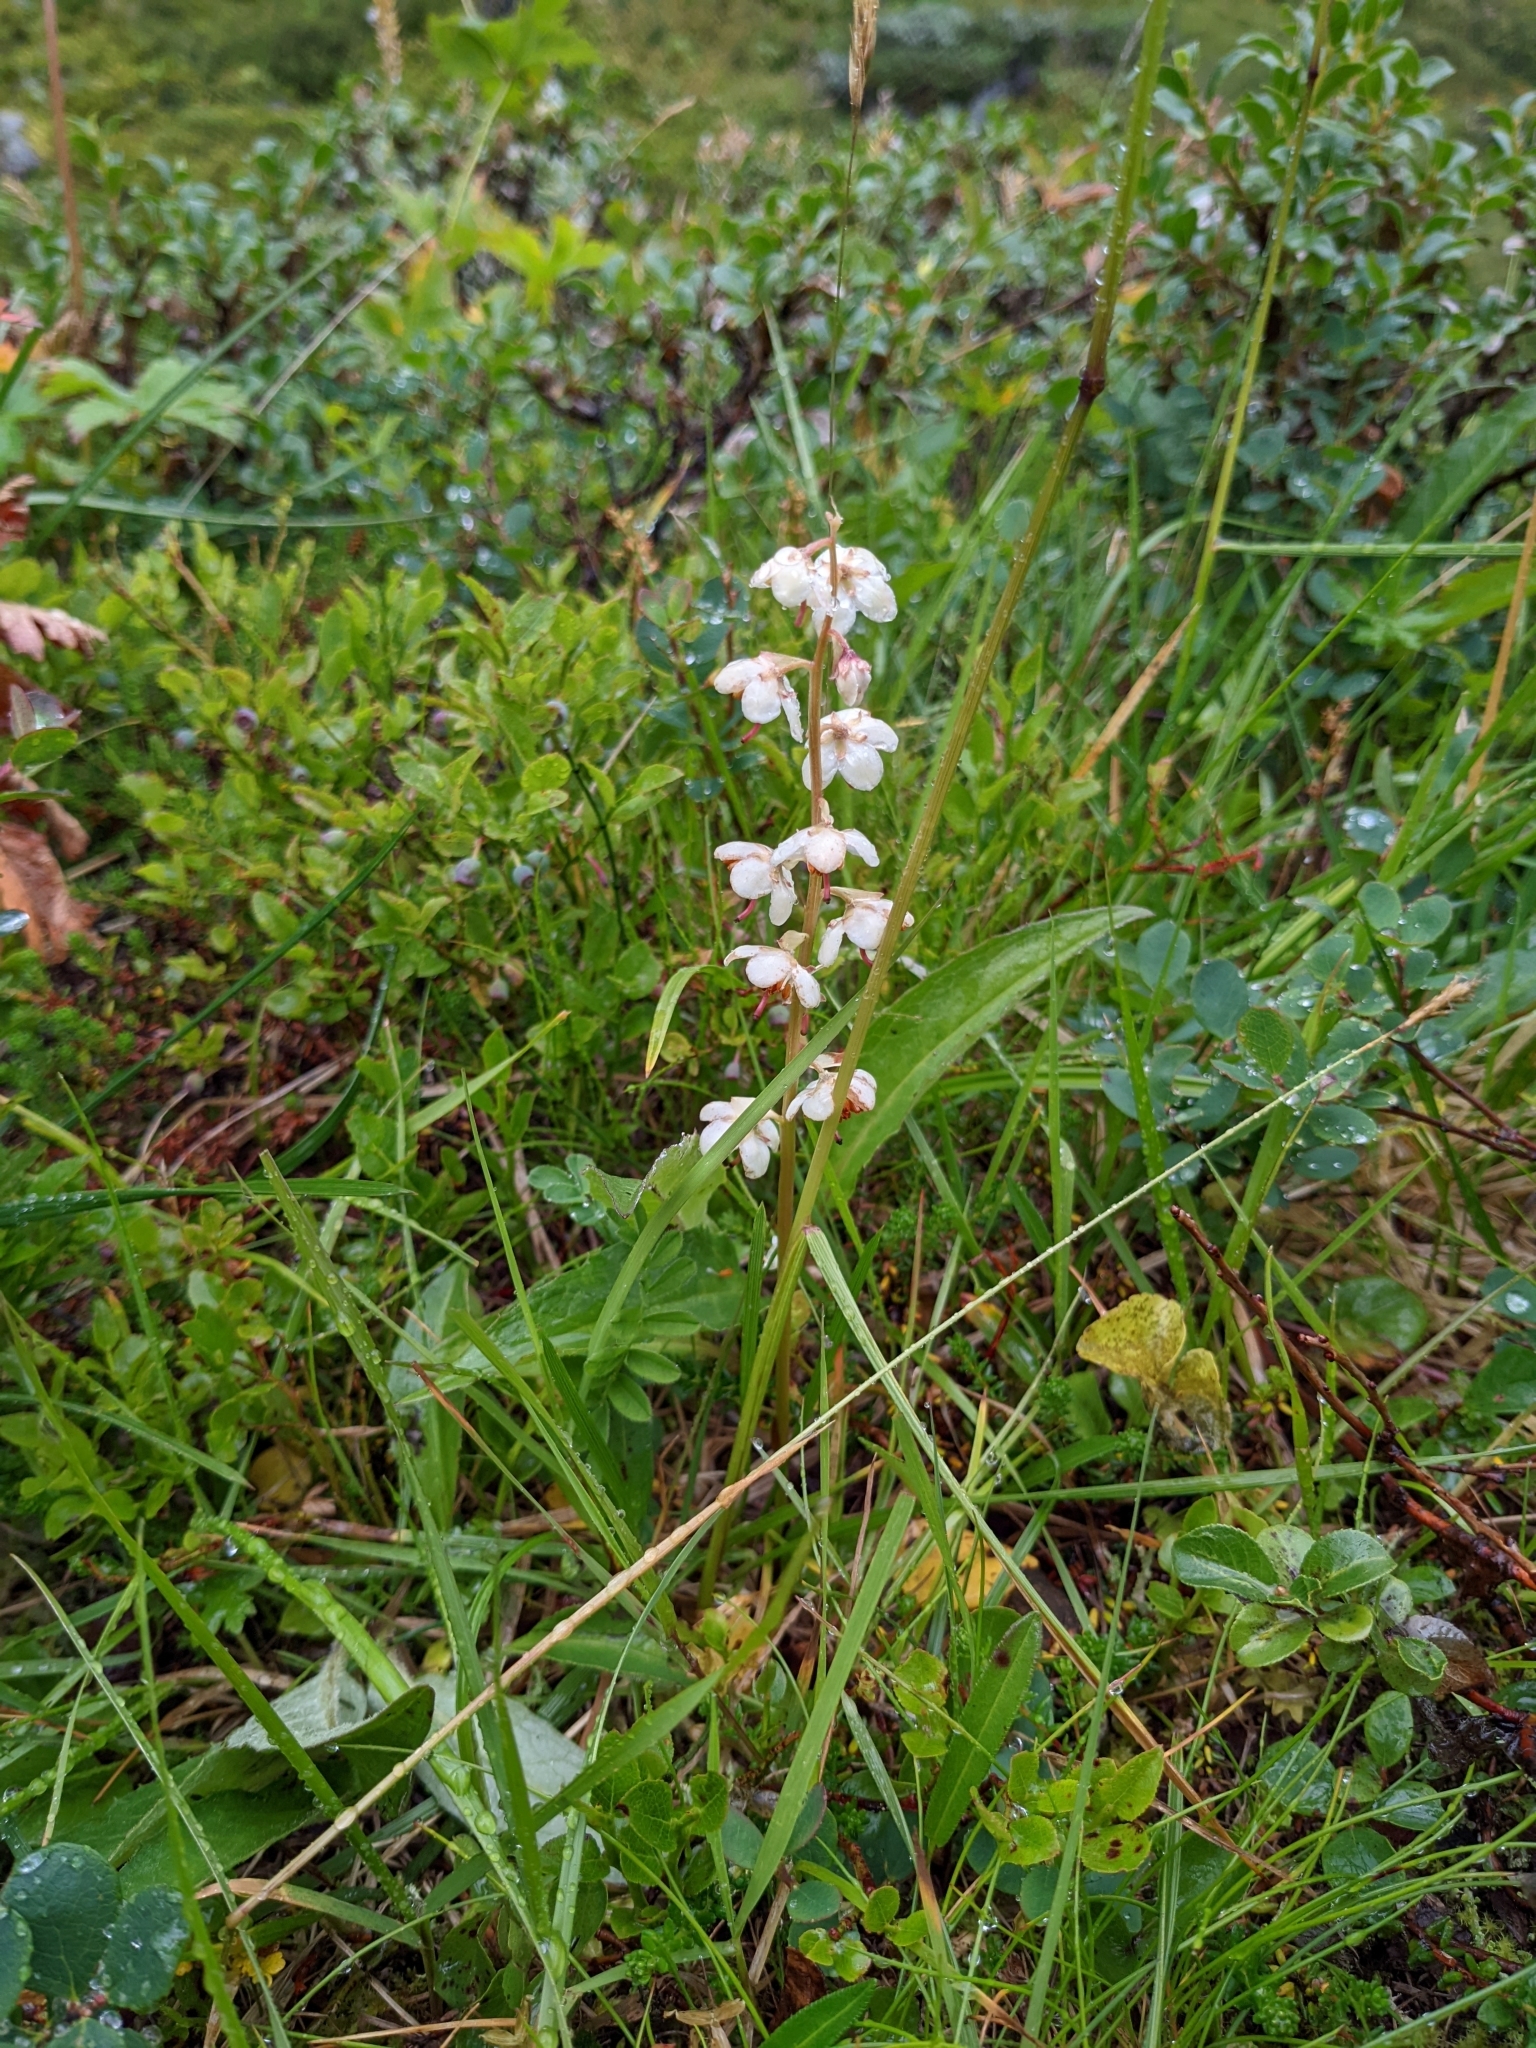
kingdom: Plantae
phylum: Tracheophyta
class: Magnoliopsida
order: Ericales
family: Ericaceae
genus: Pyrola
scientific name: Pyrola rotundifolia
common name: Round-leaved wintergreen
